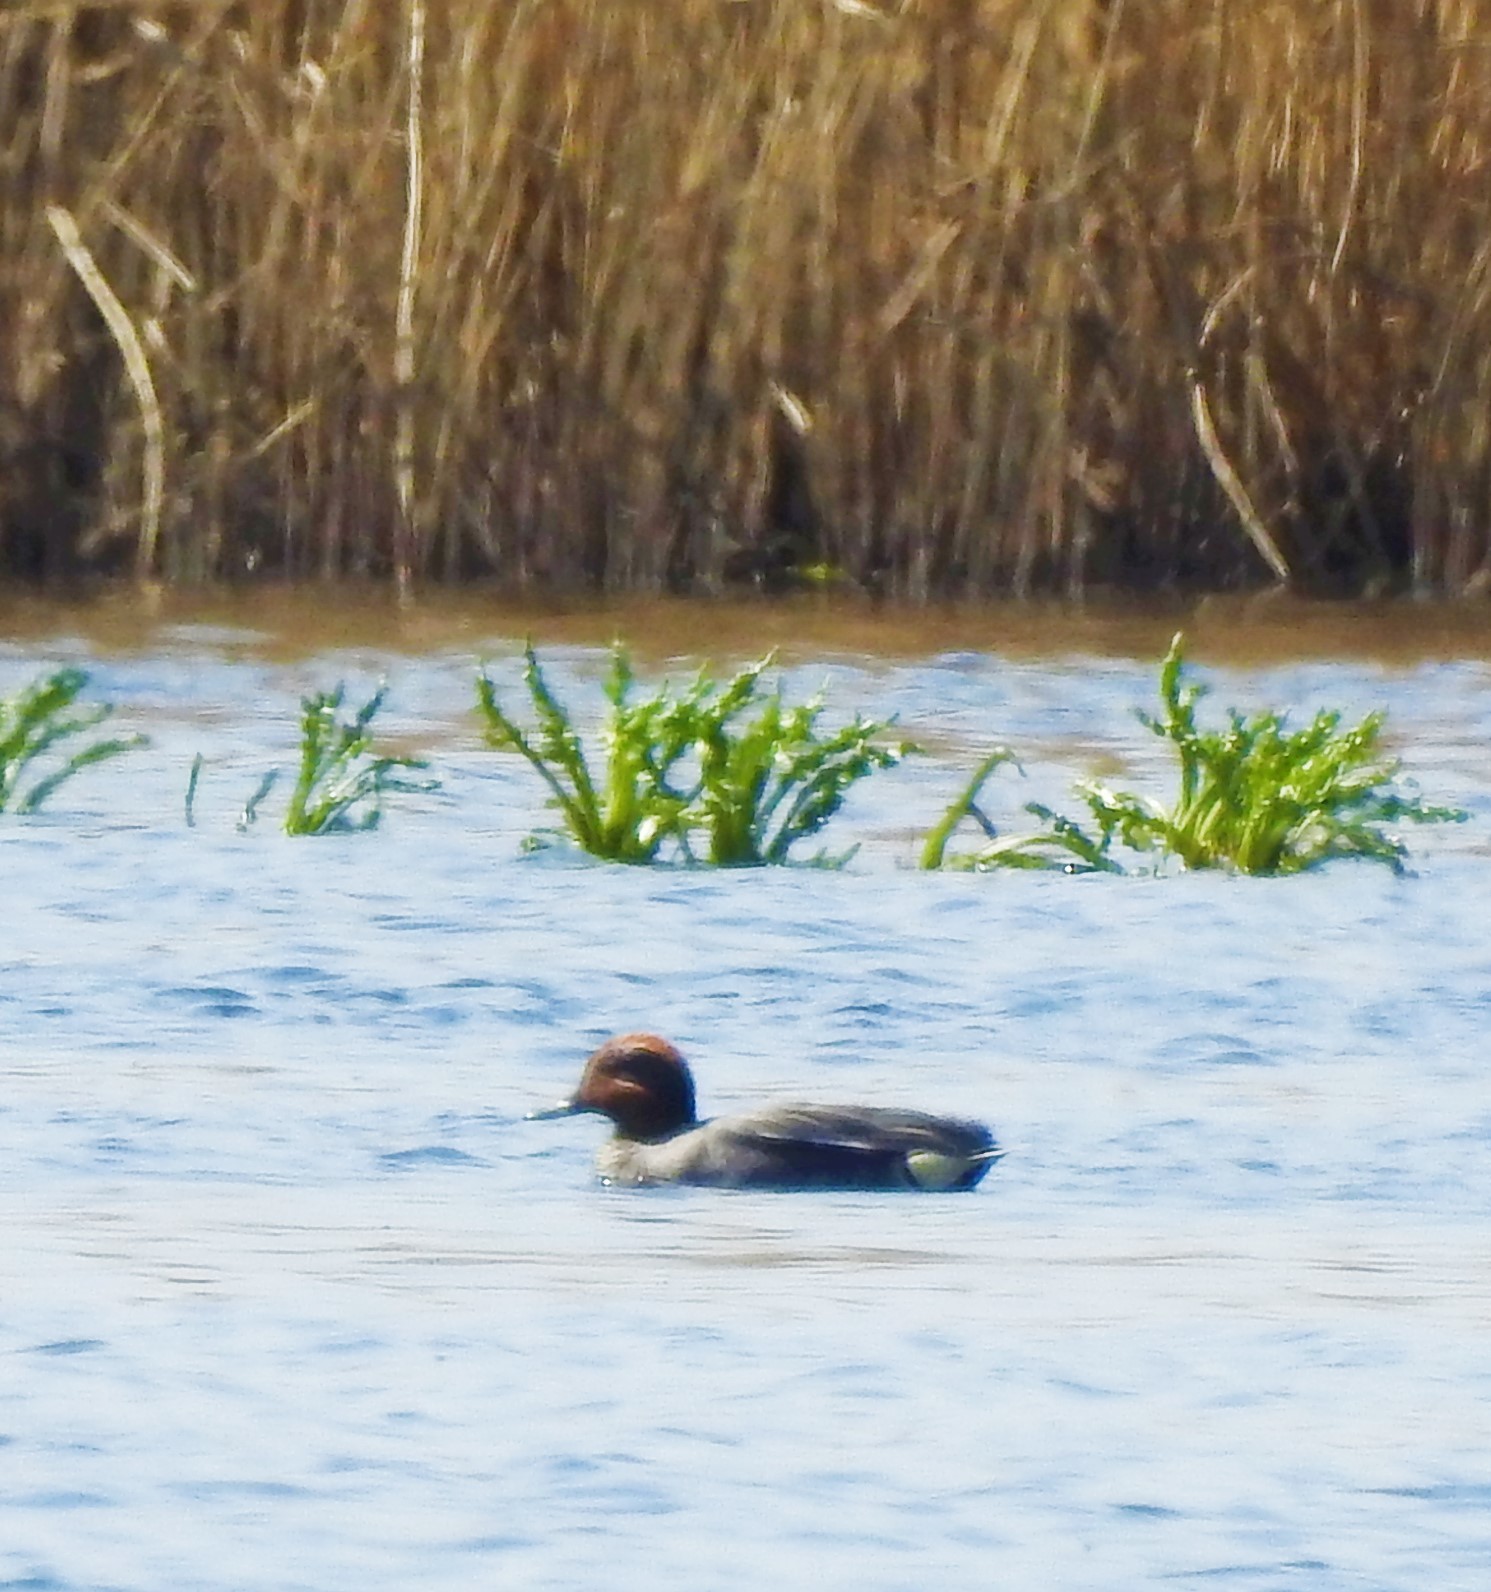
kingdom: Animalia
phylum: Chordata
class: Aves
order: Anseriformes
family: Anatidae
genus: Anas
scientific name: Anas crecca
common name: Eurasian teal
